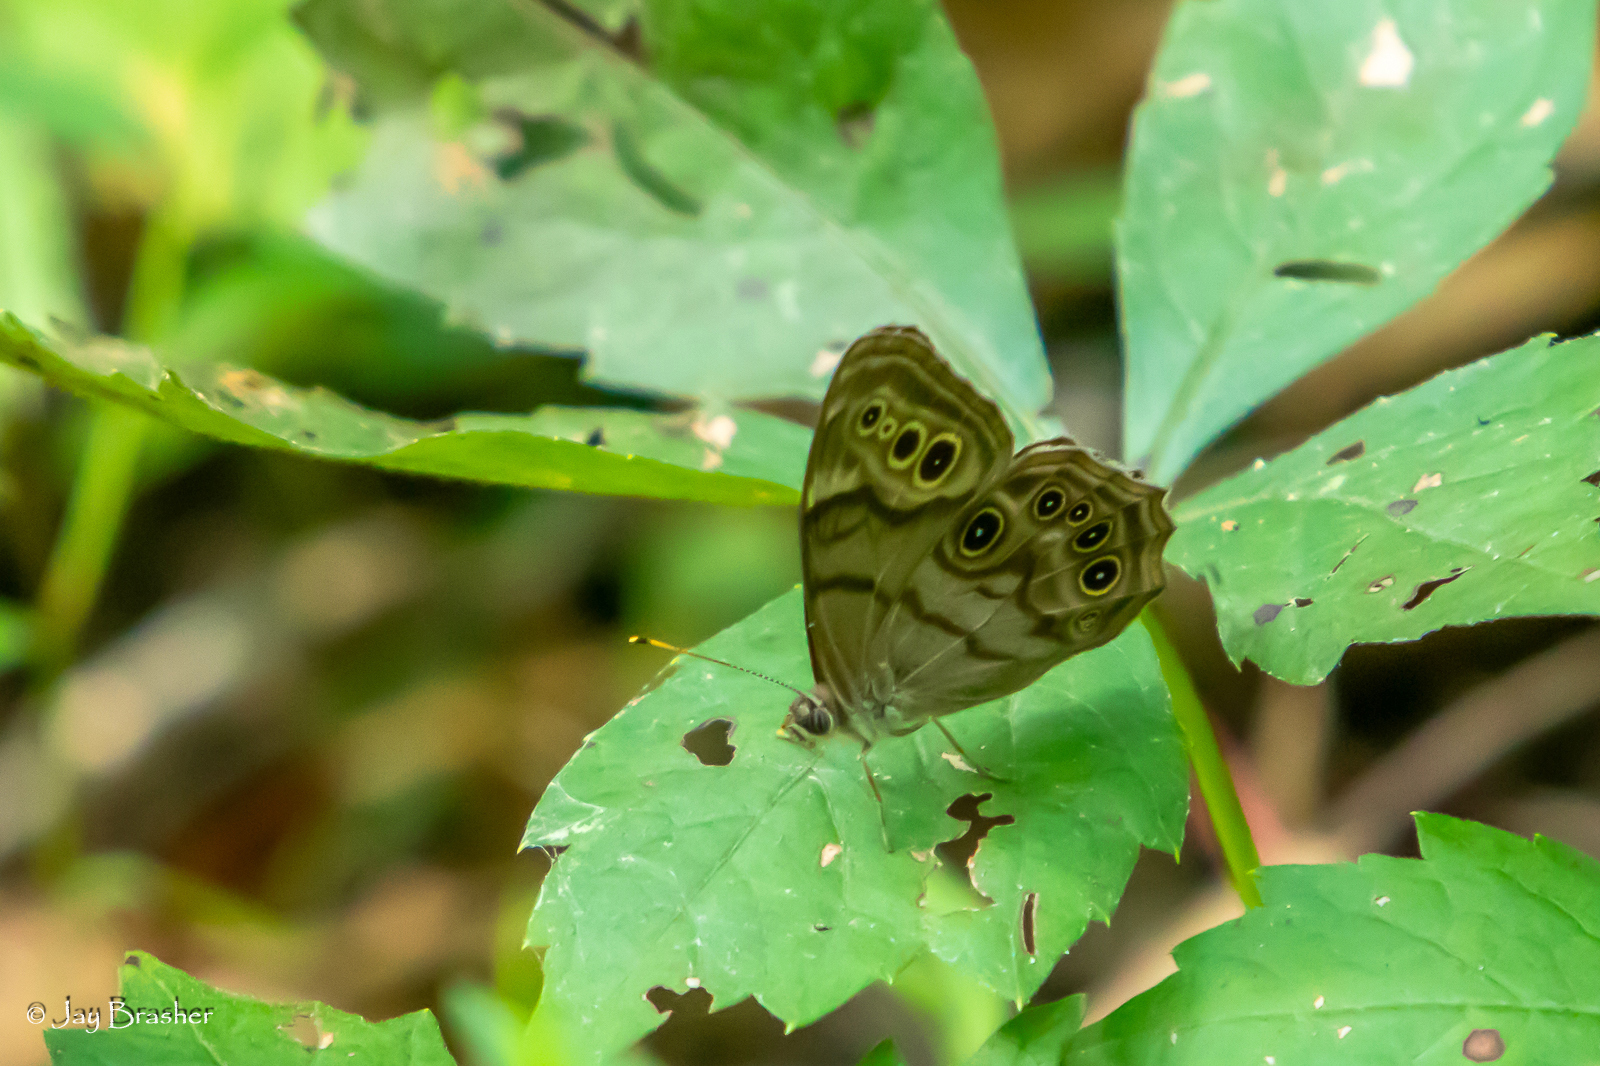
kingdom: Animalia
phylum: Arthropoda
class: Insecta
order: Lepidoptera
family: Nymphalidae
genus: Lethe
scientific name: Lethe anthedon
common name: Northern pearly-eye
